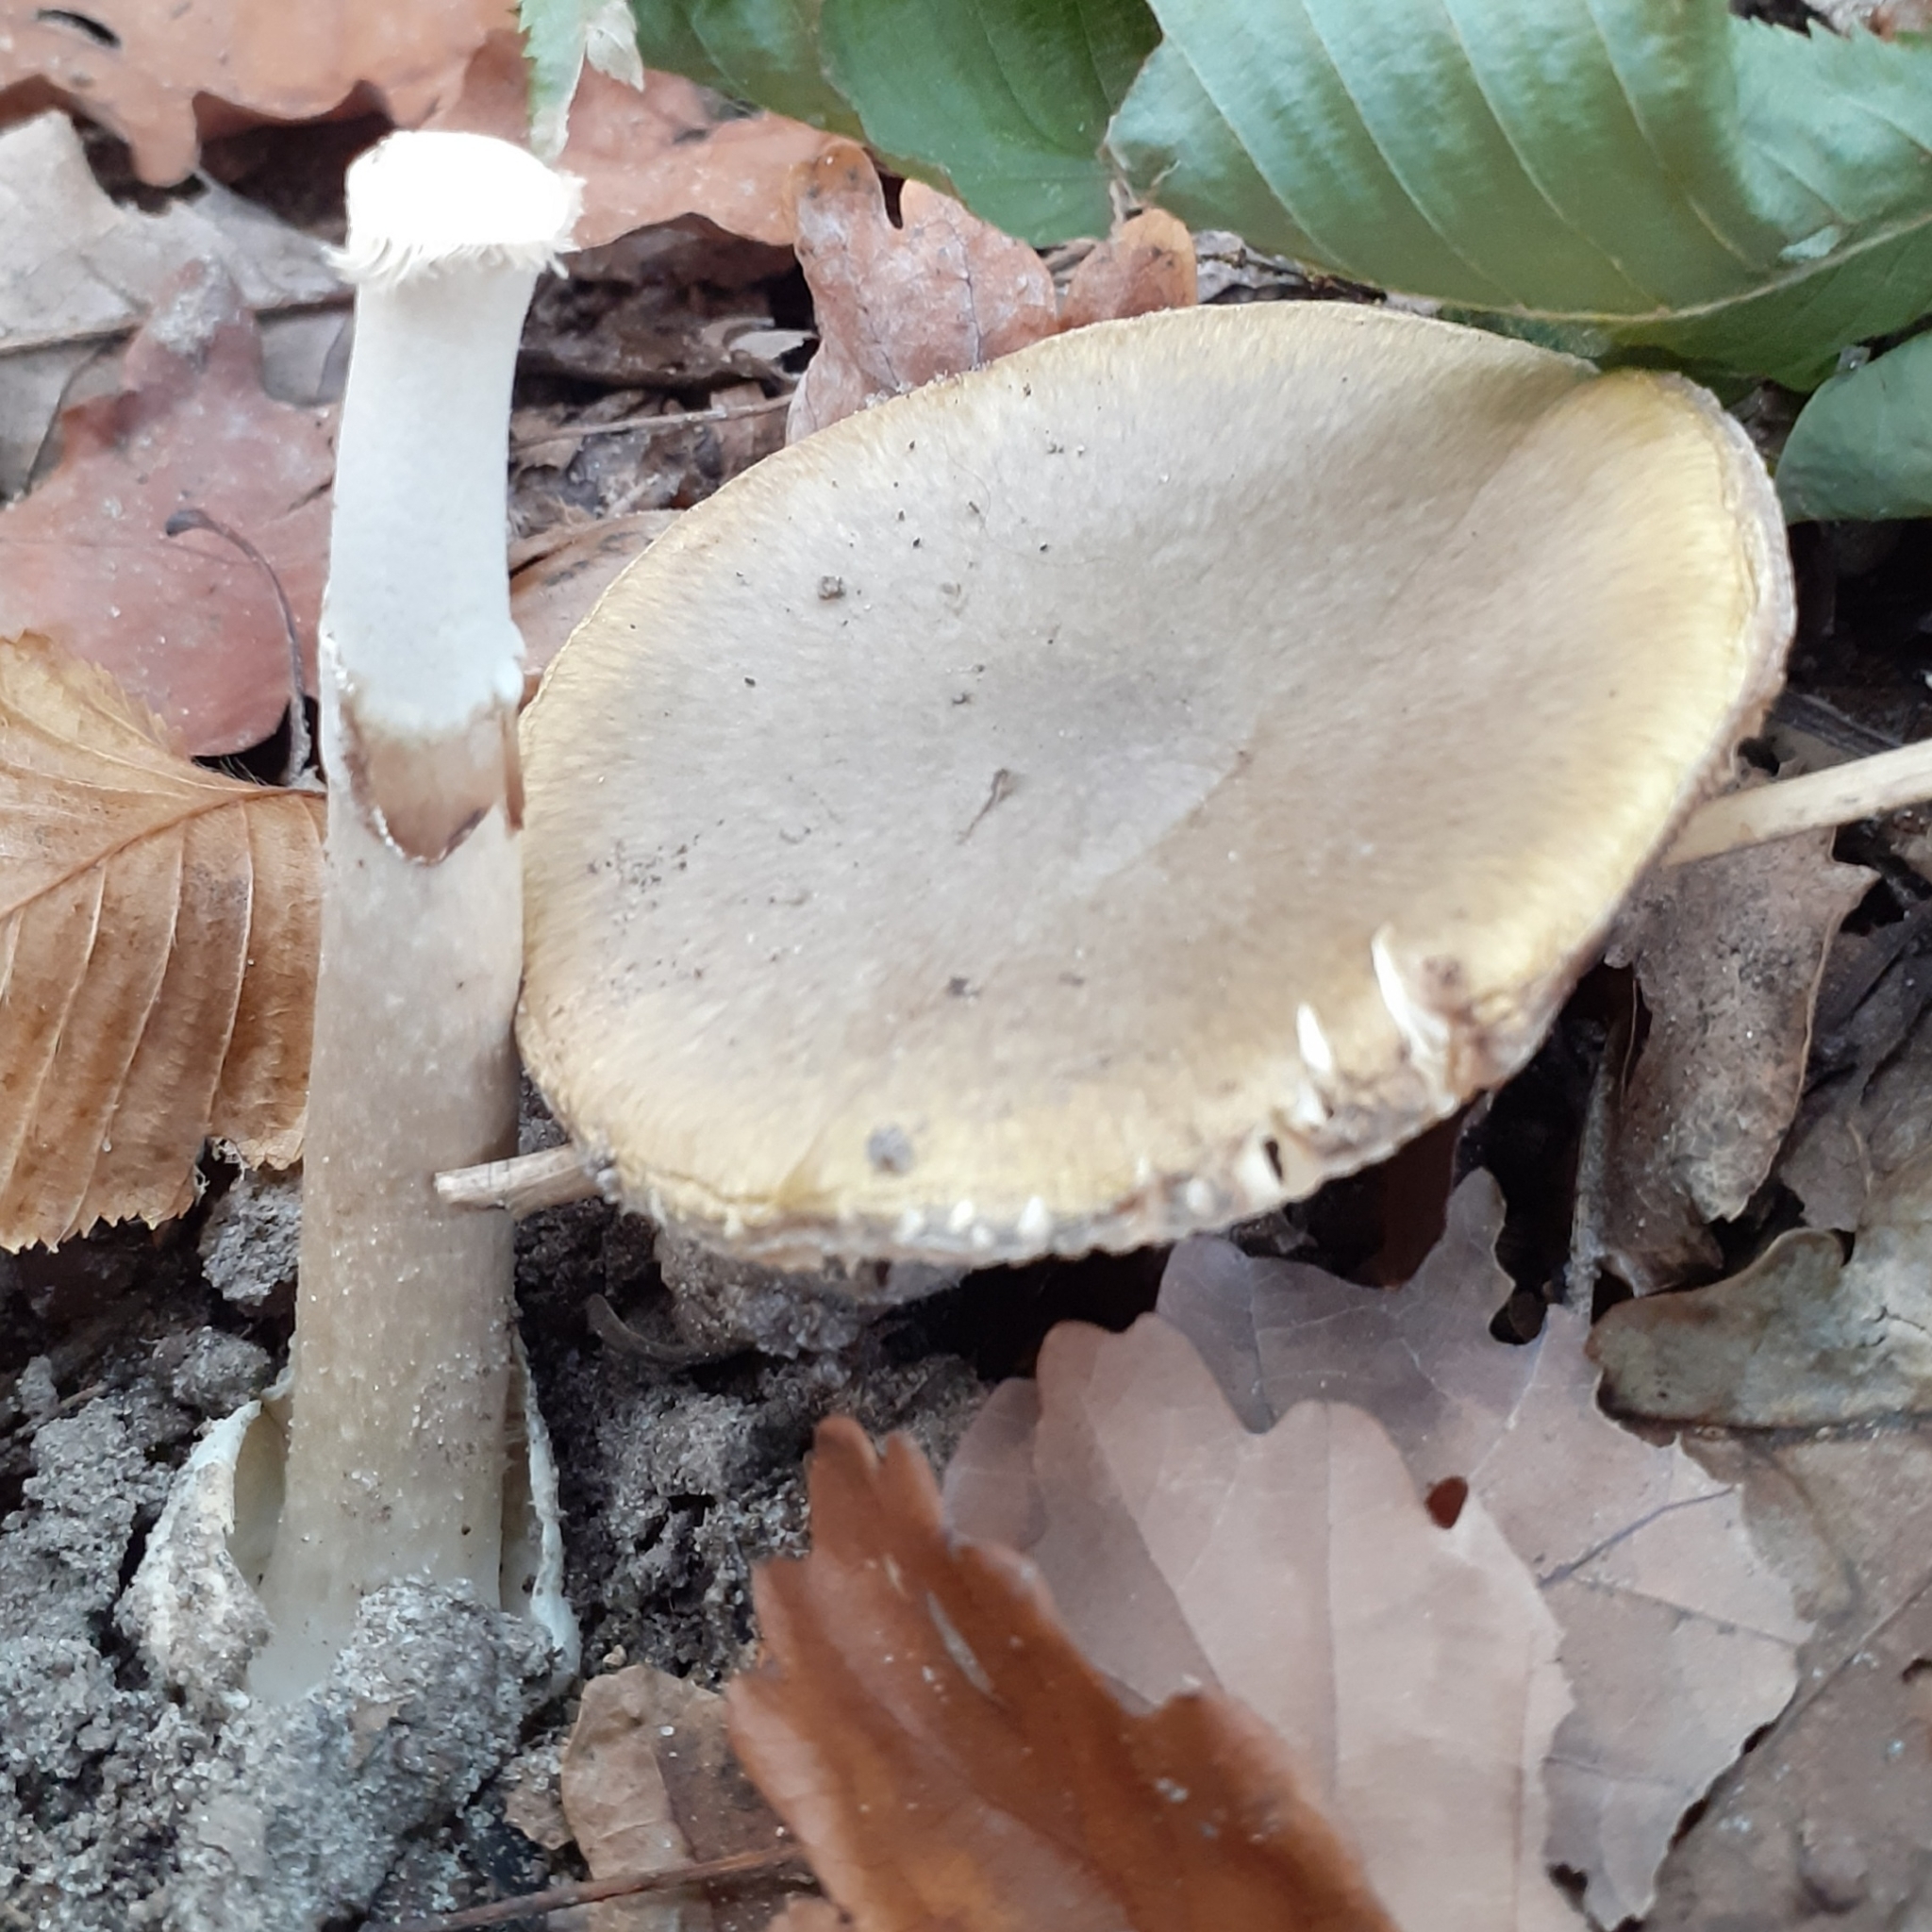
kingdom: Fungi
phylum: Basidiomycota
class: Agaricomycetes
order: Agaricales
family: Amanitaceae
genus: Amanita
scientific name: Amanita phalloides
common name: Death cap
